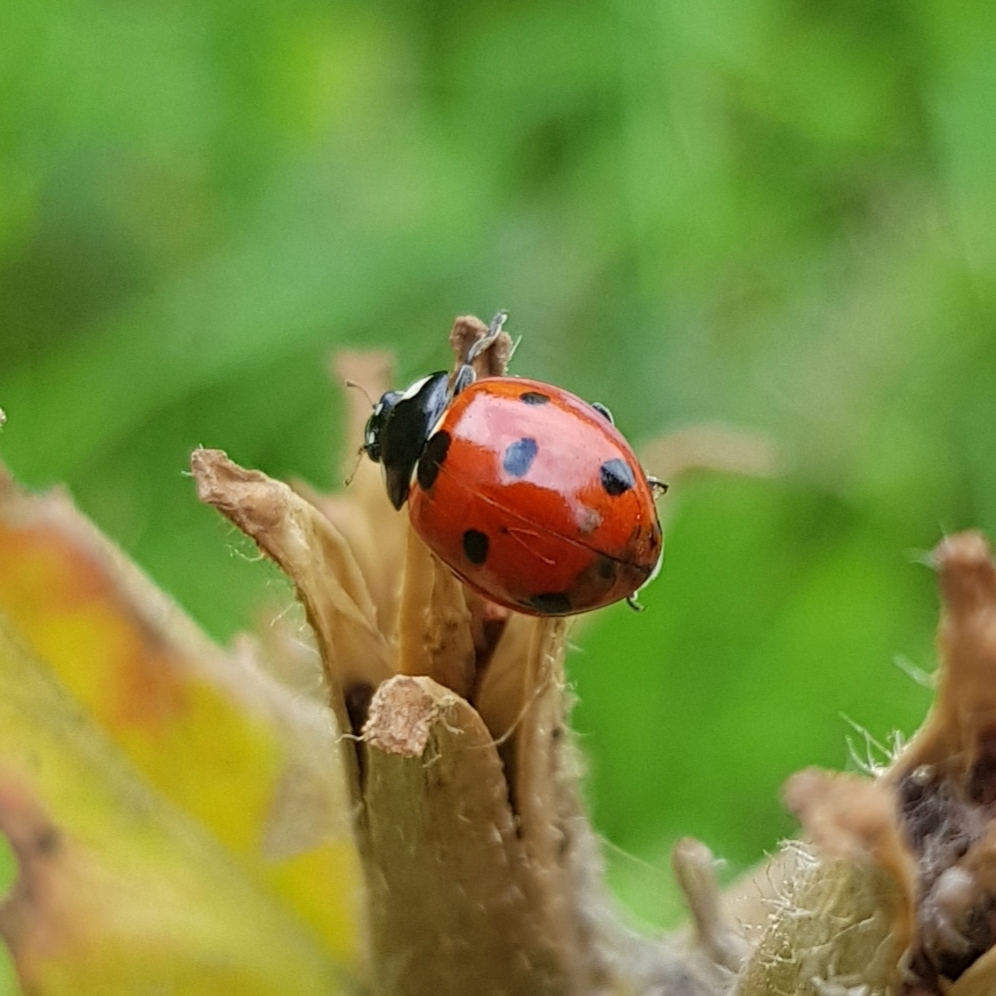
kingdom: Animalia
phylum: Arthropoda
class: Insecta
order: Coleoptera
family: Coccinellidae
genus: Coccinella
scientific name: Coccinella septempunctata
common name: Sevenspotted lady beetle
